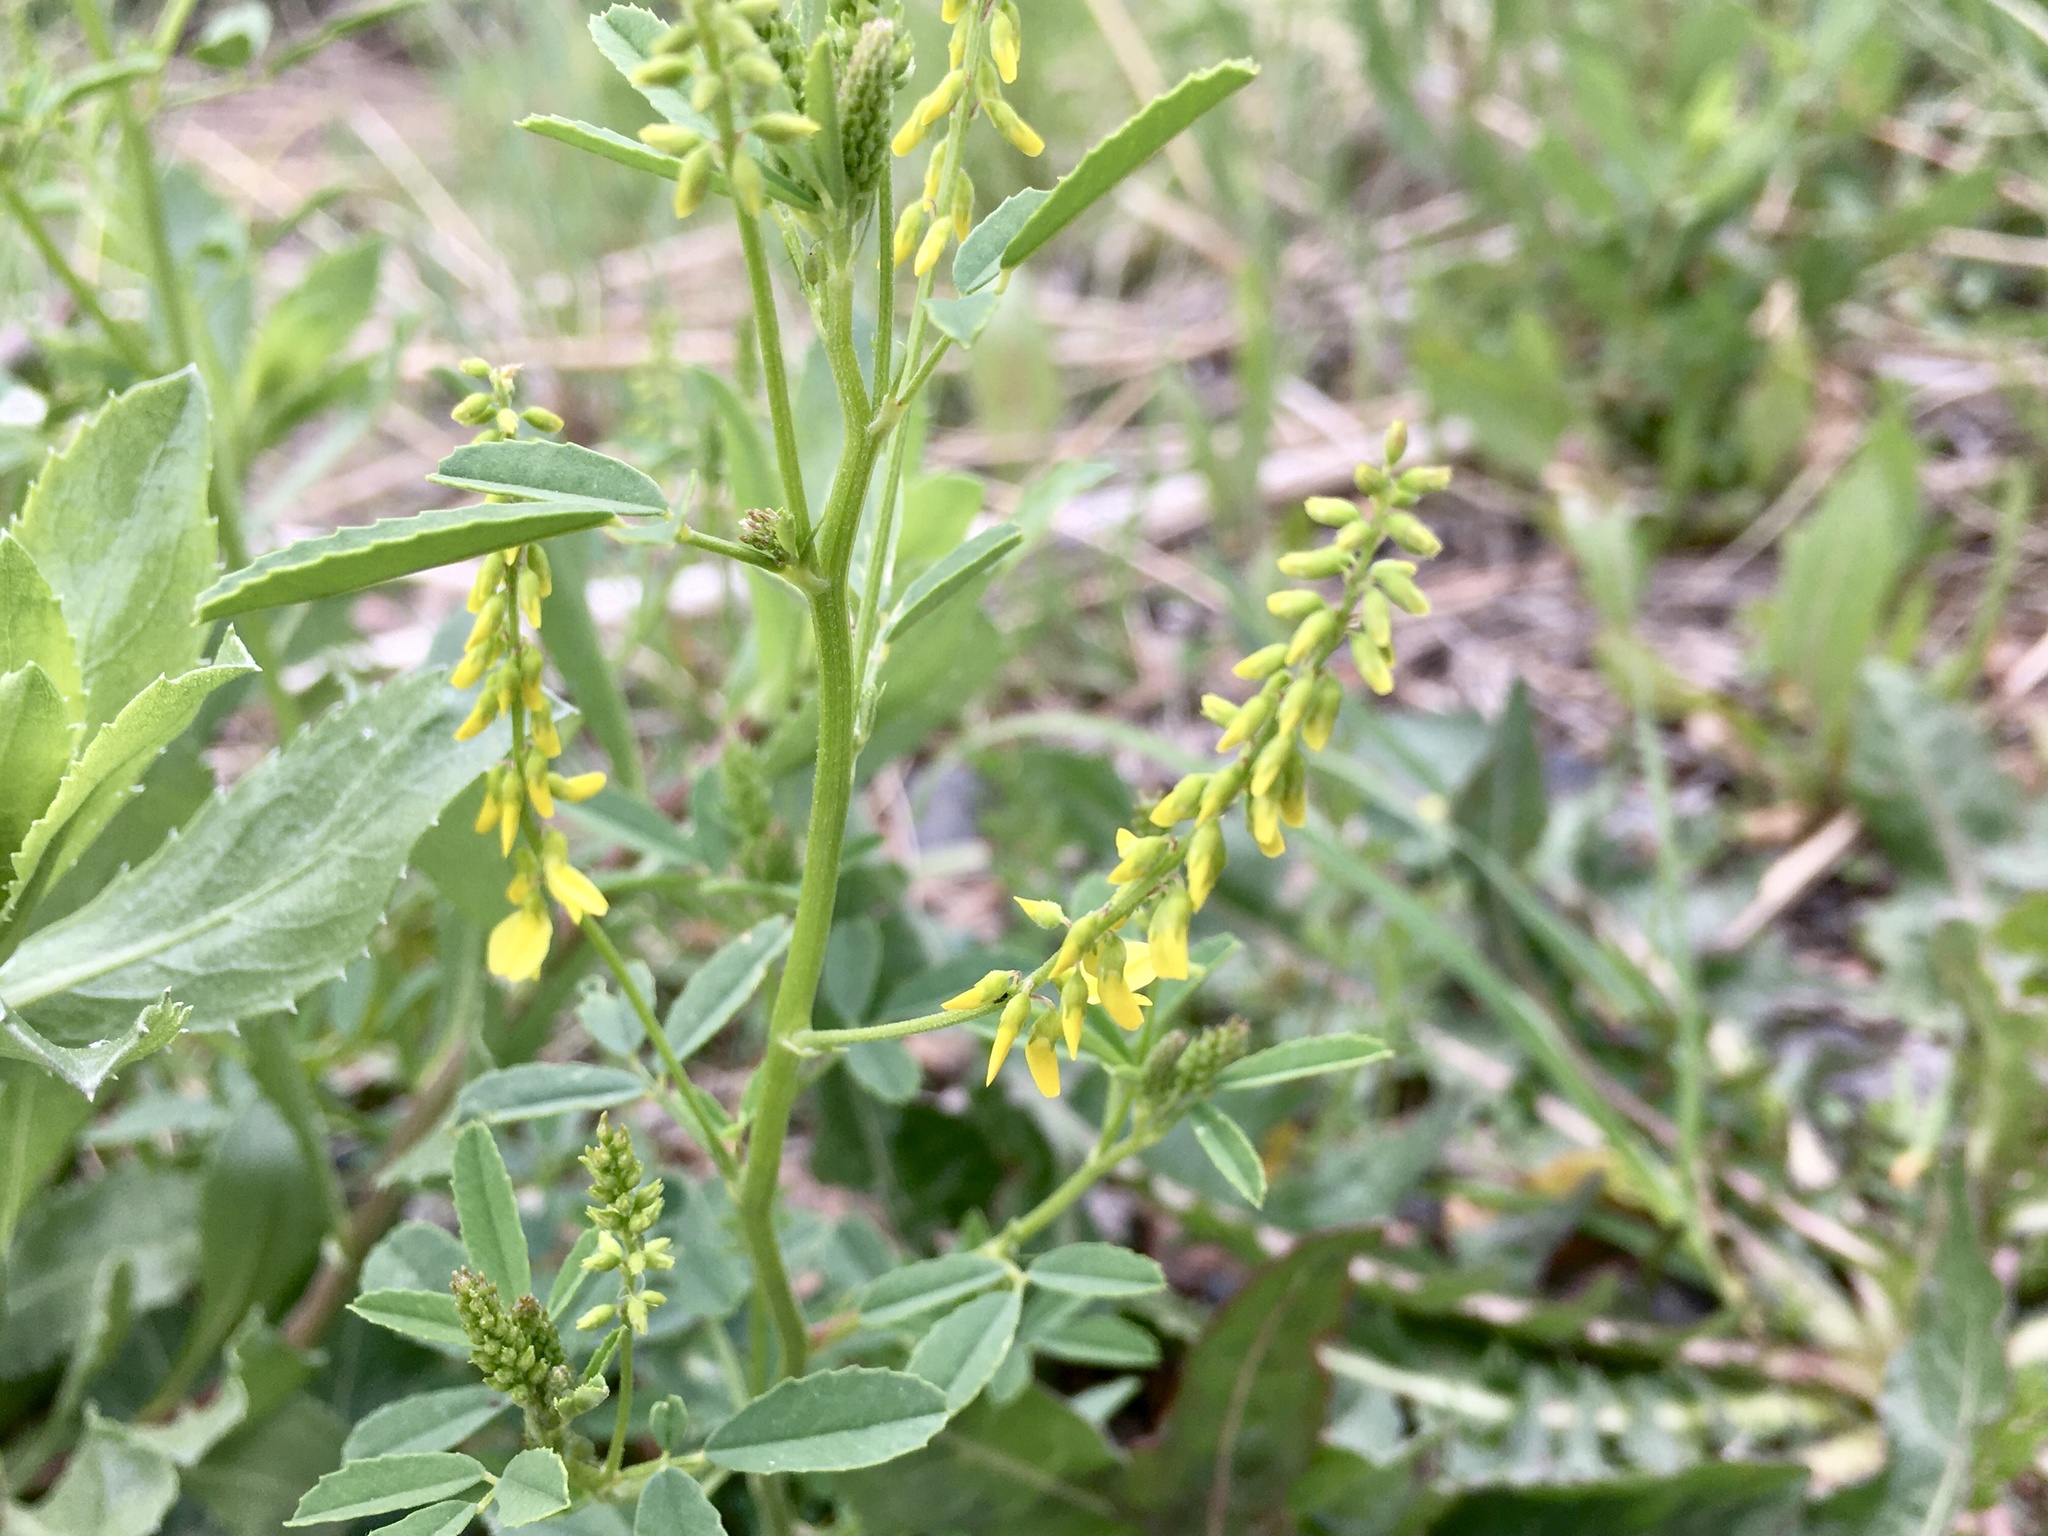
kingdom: Plantae
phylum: Tracheophyta
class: Magnoliopsida
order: Fabales
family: Fabaceae
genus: Melilotus
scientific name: Melilotus officinalis
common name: Sweetclover
